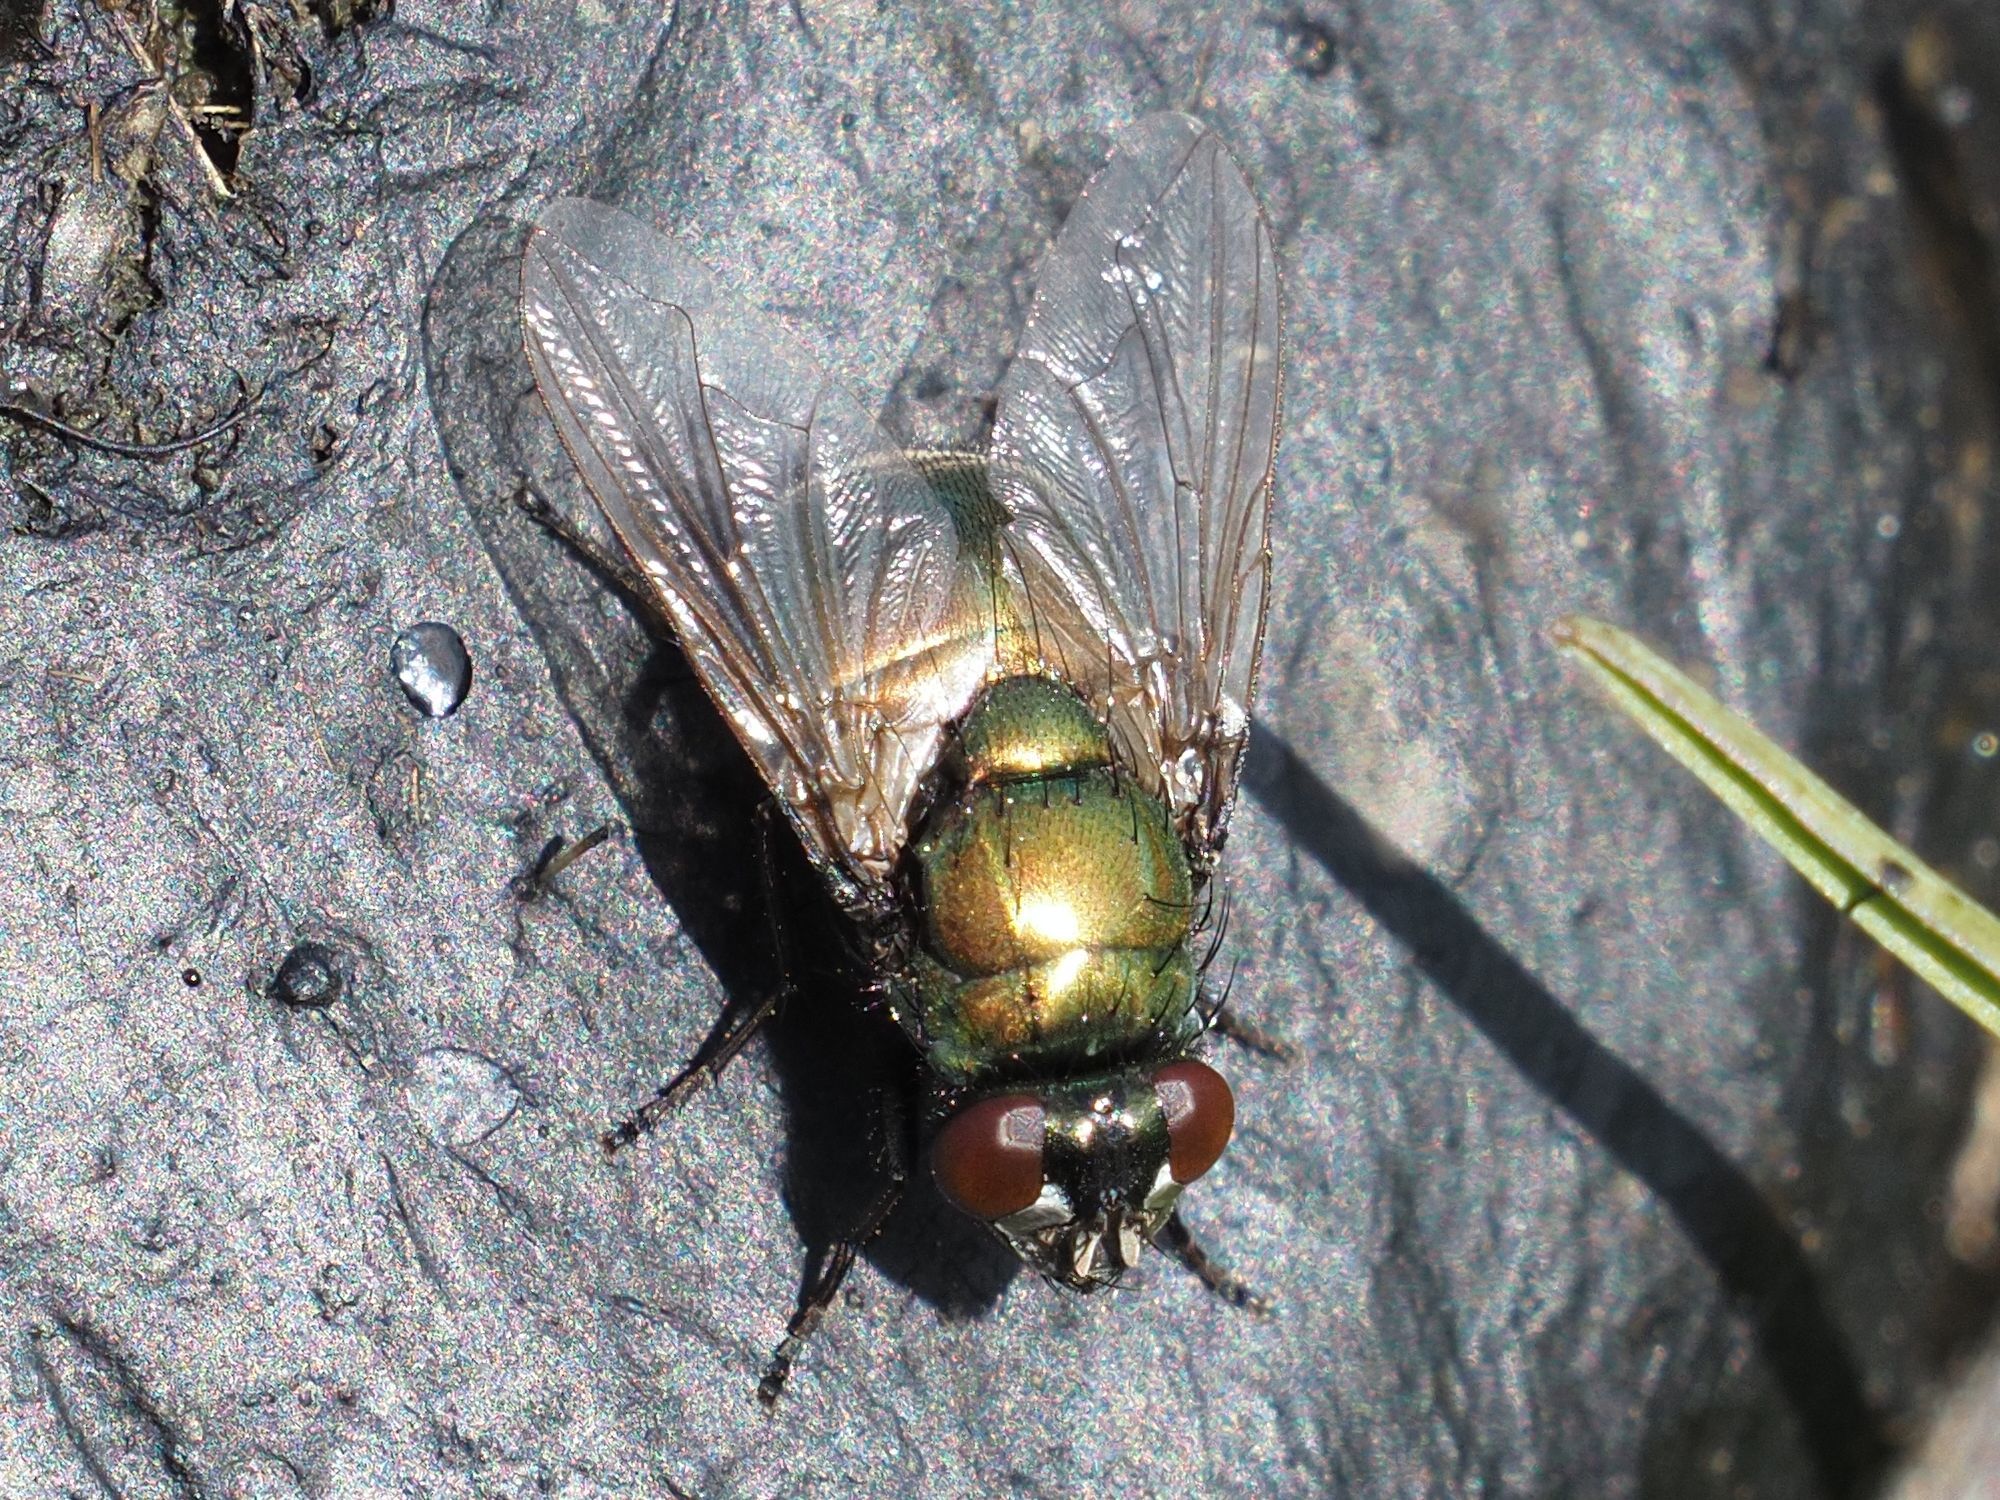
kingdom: Animalia
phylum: Arthropoda
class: Insecta
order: Diptera
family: Muscidae
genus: Neomyia
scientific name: Neomyia cornicina
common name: House fly
